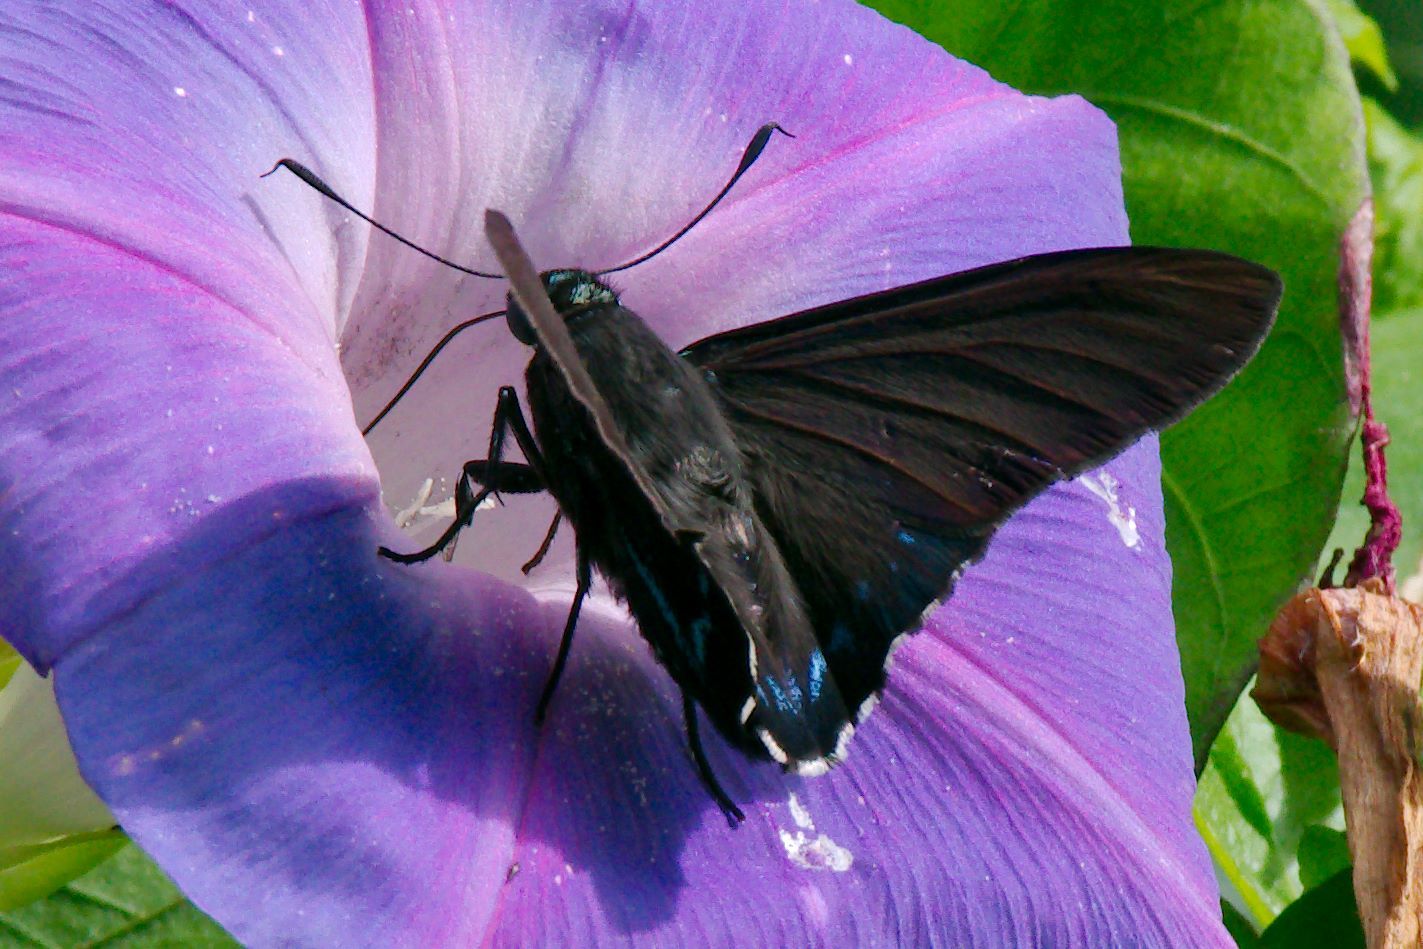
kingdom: Animalia
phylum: Arthropoda
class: Insecta
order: Lepidoptera
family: Hesperiidae
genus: Phocides
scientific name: Phocides pigmalion
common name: Mangrove skipper
